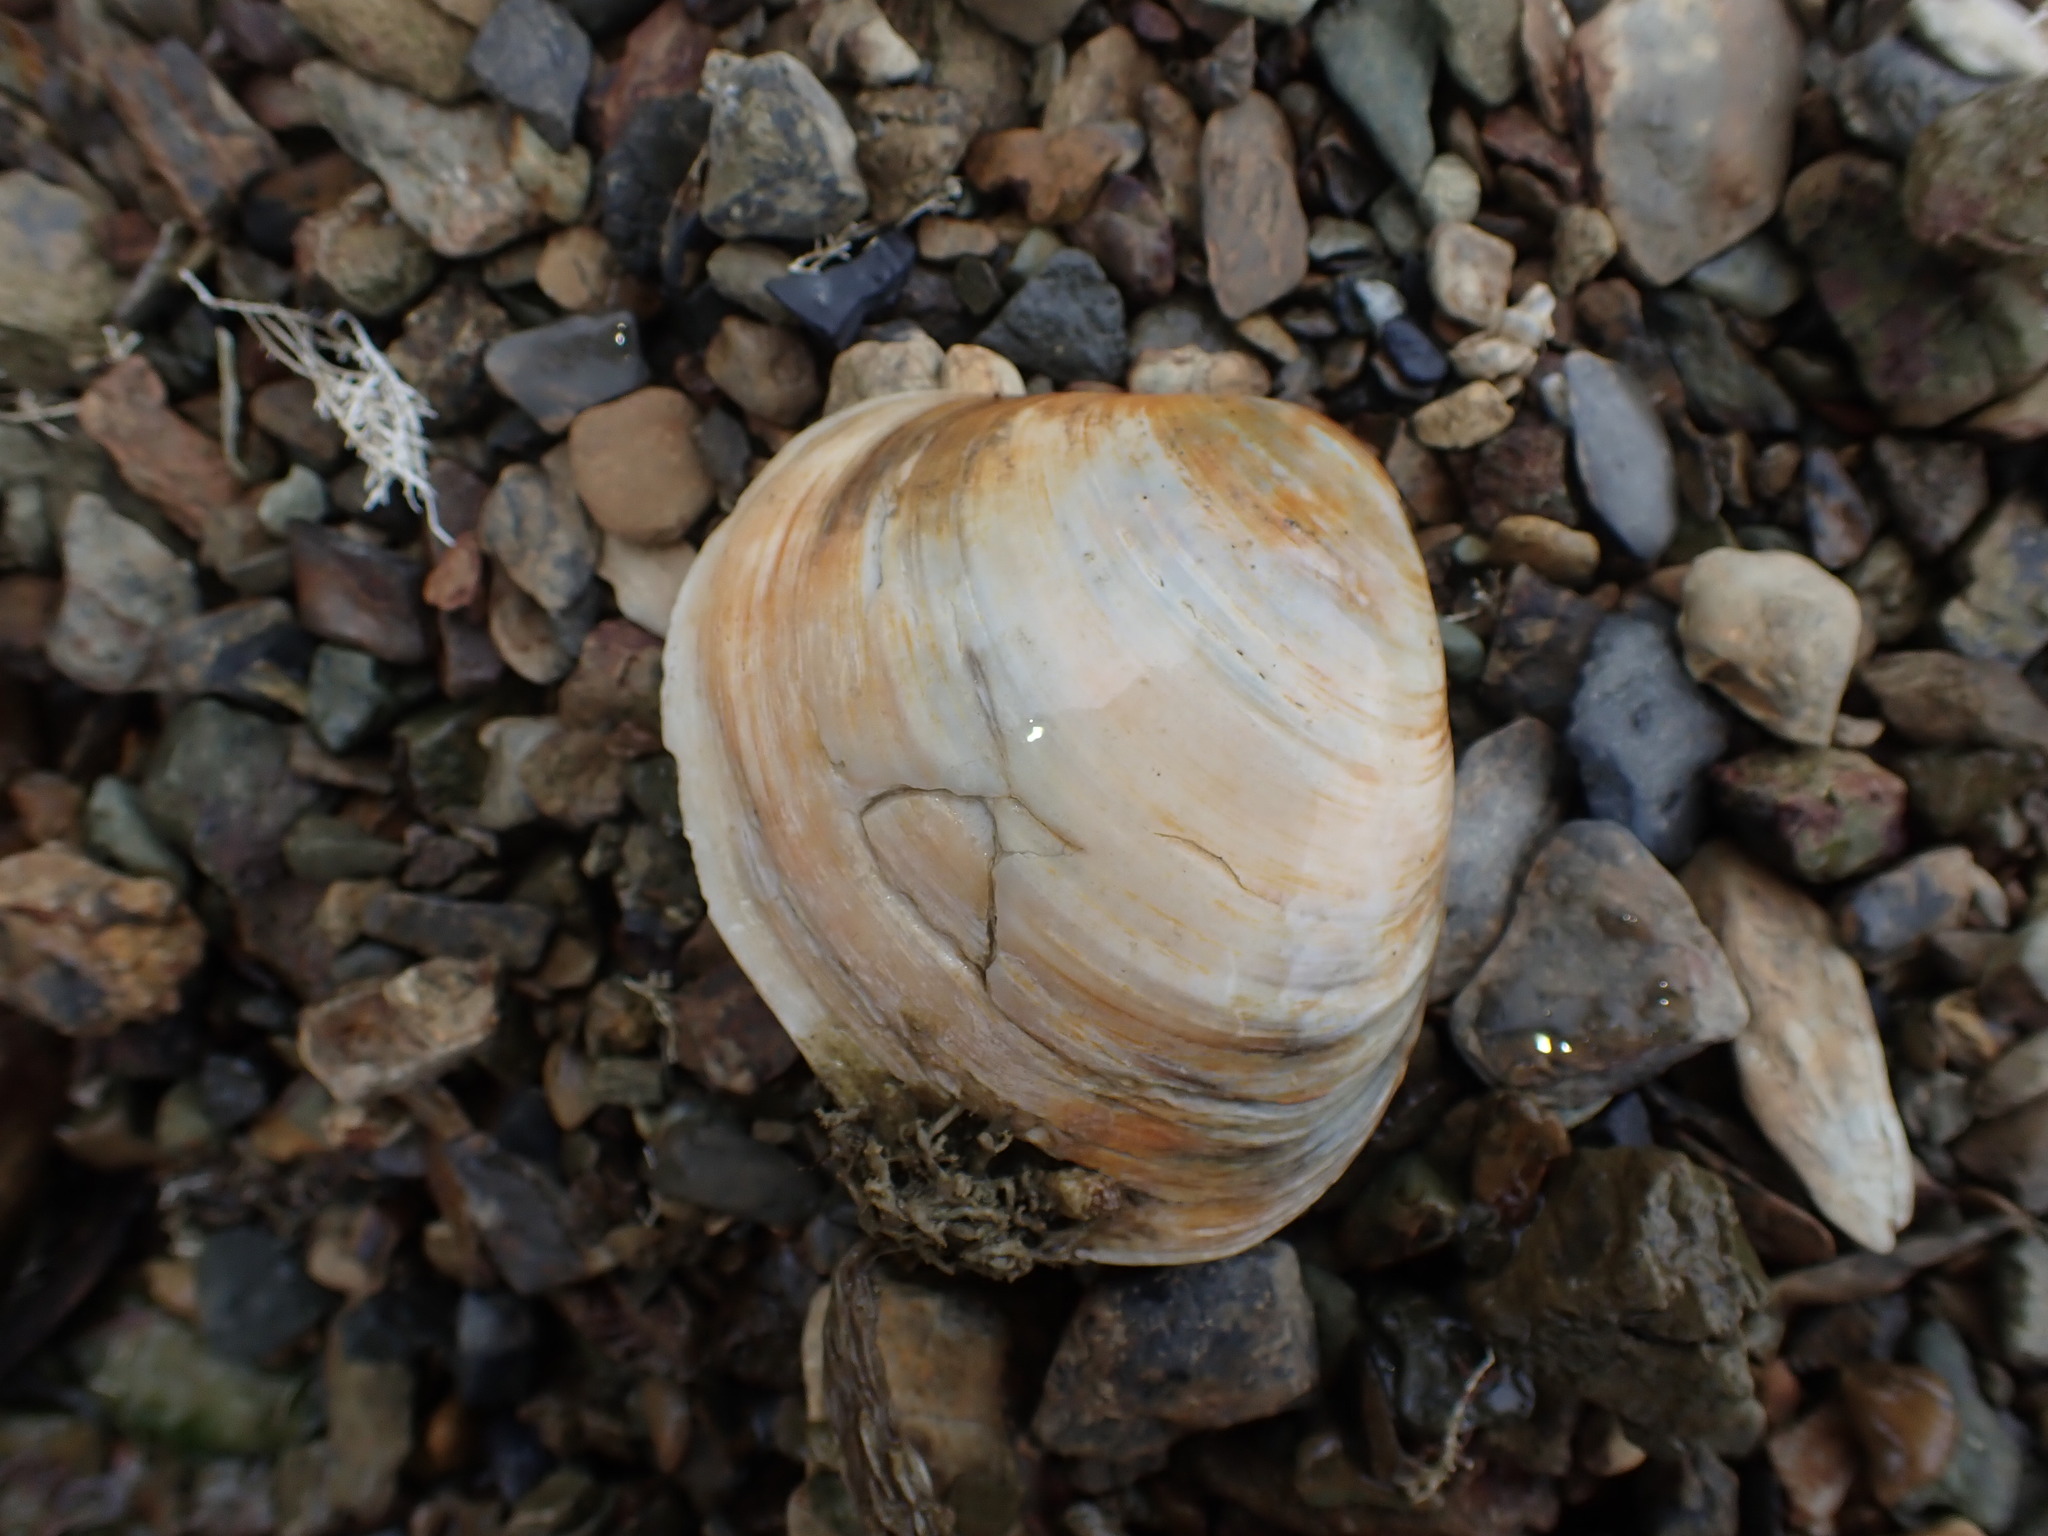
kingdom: Animalia
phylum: Mollusca
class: Bivalvia
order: Venerida
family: Mactridae
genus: Cyclomactra
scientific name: Cyclomactra ovata
